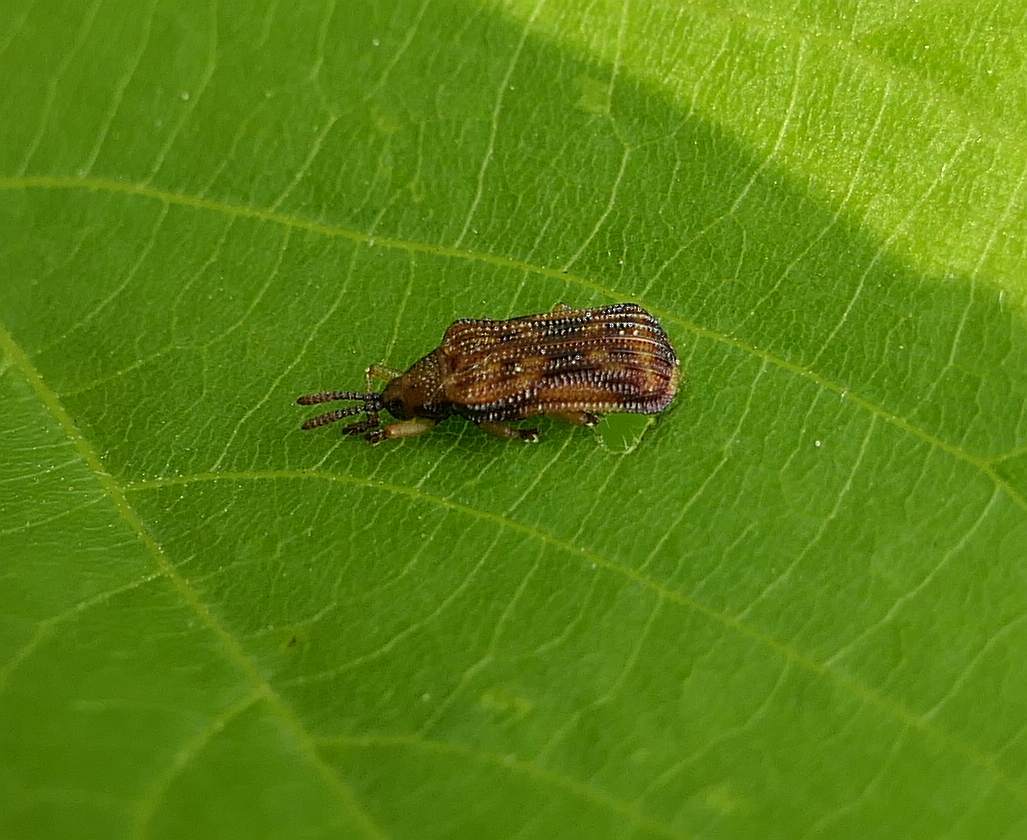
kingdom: Animalia
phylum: Arthropoda
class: Insecta
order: Coleoptera
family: Chrysomelidae
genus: Baliosus
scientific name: Baliosus nervosus
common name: Basswood leaf miner
